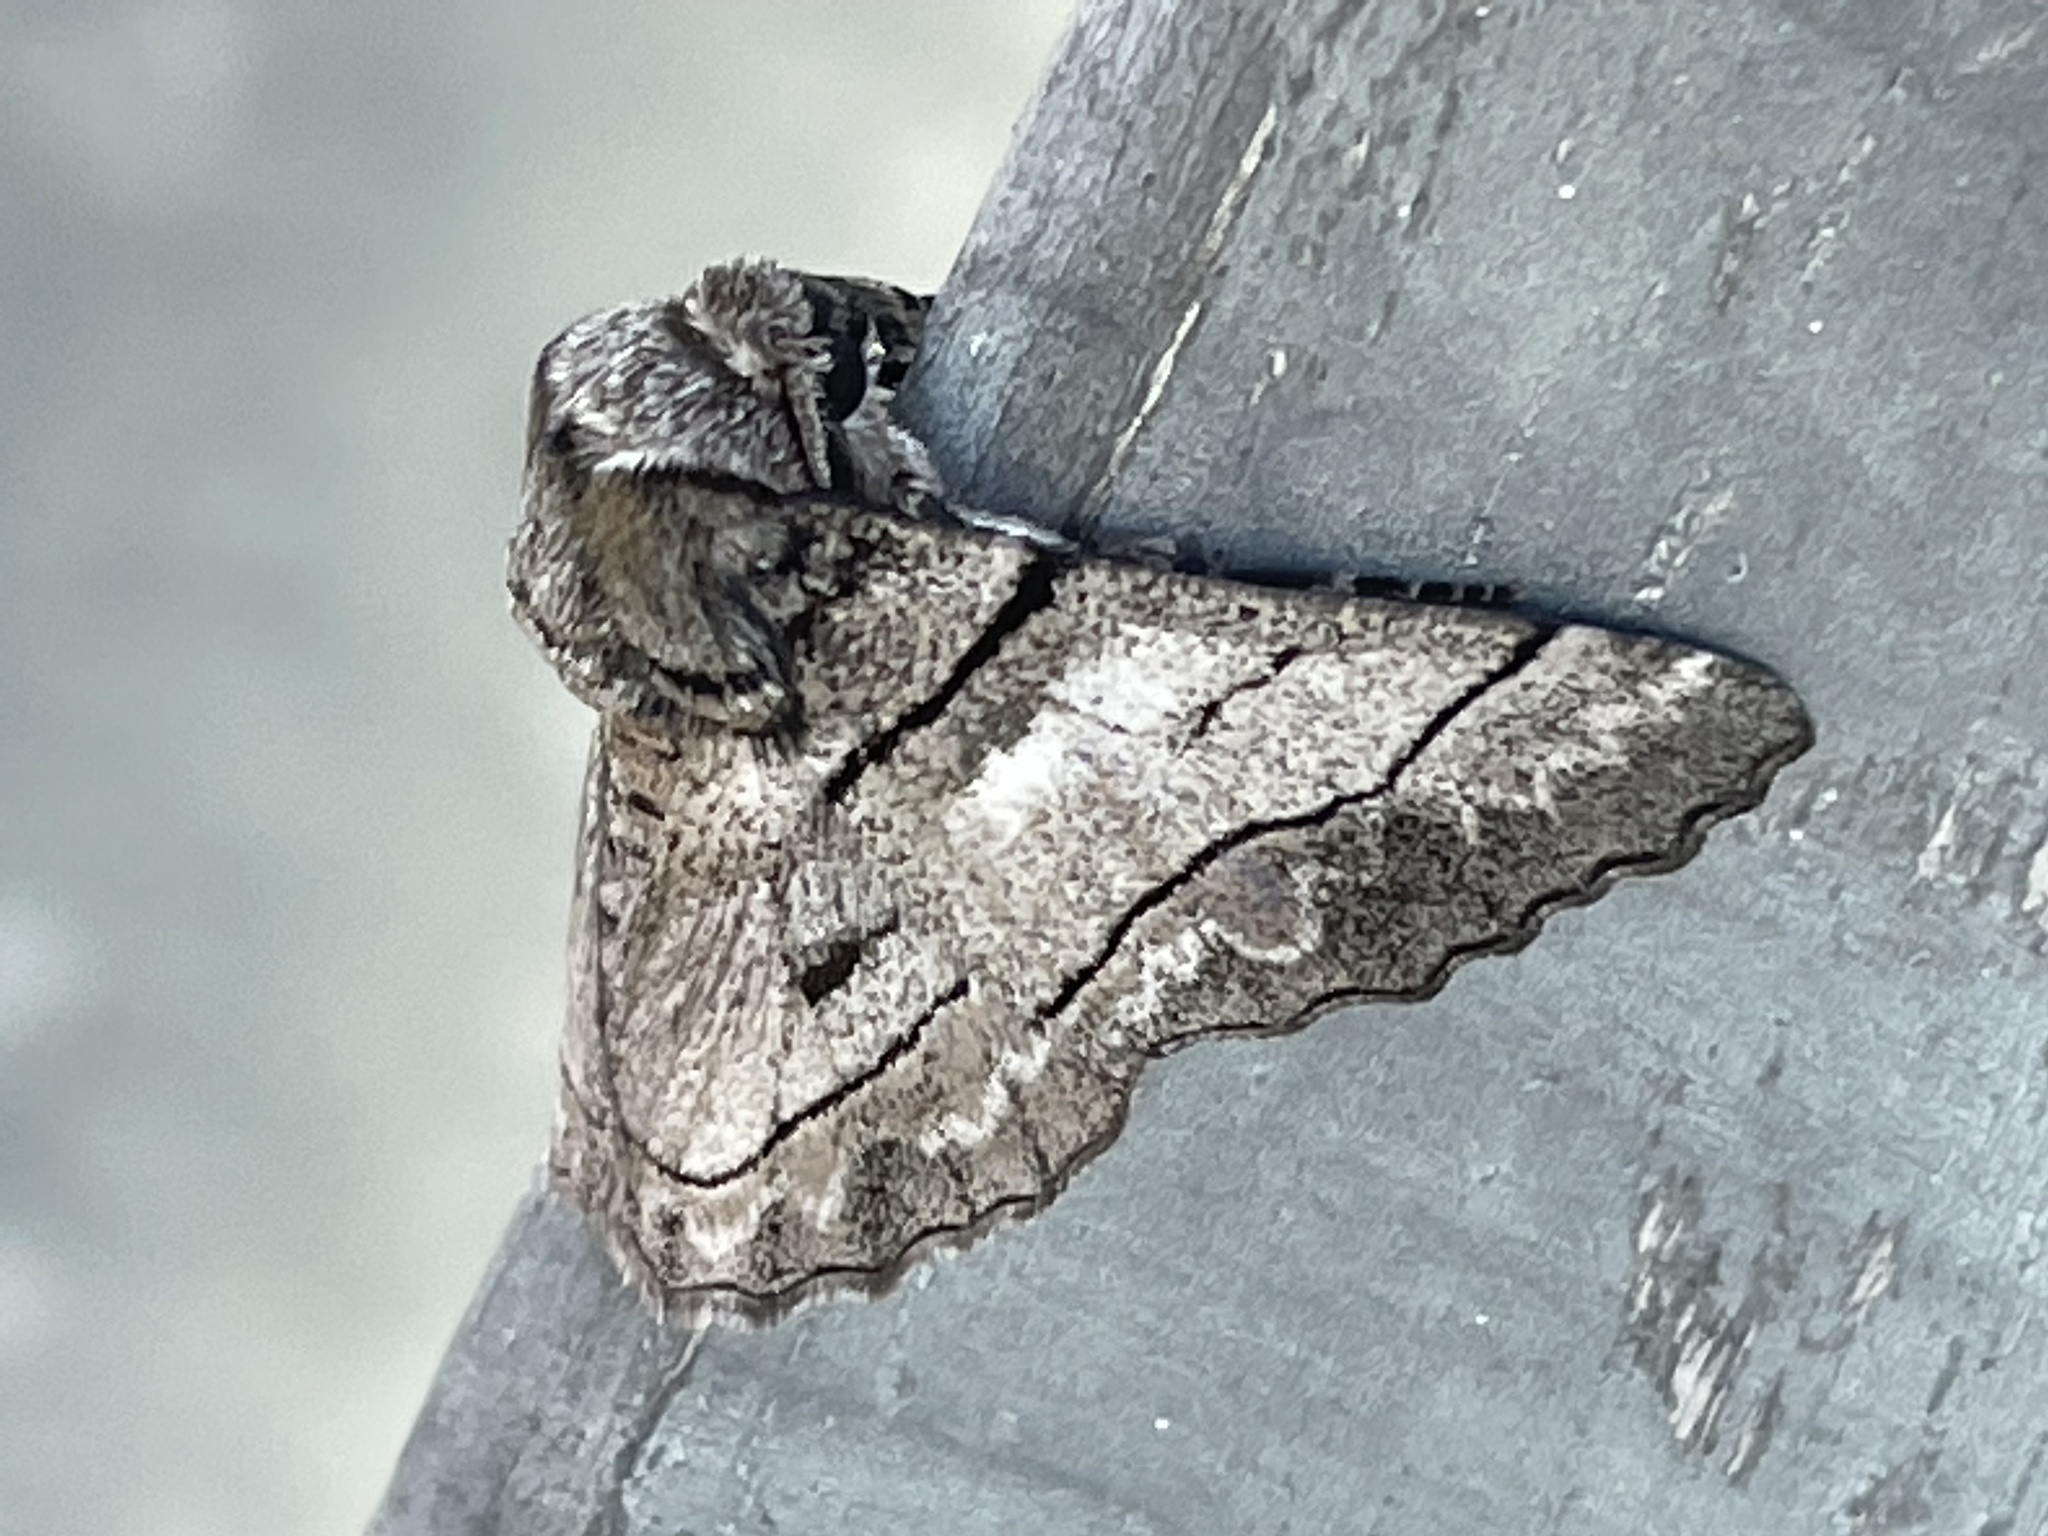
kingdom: Animalia
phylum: Arthropoda
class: Insecta
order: Lepidoptera
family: Geometridae
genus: Hypobapta
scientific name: Hypobapta diffundens
